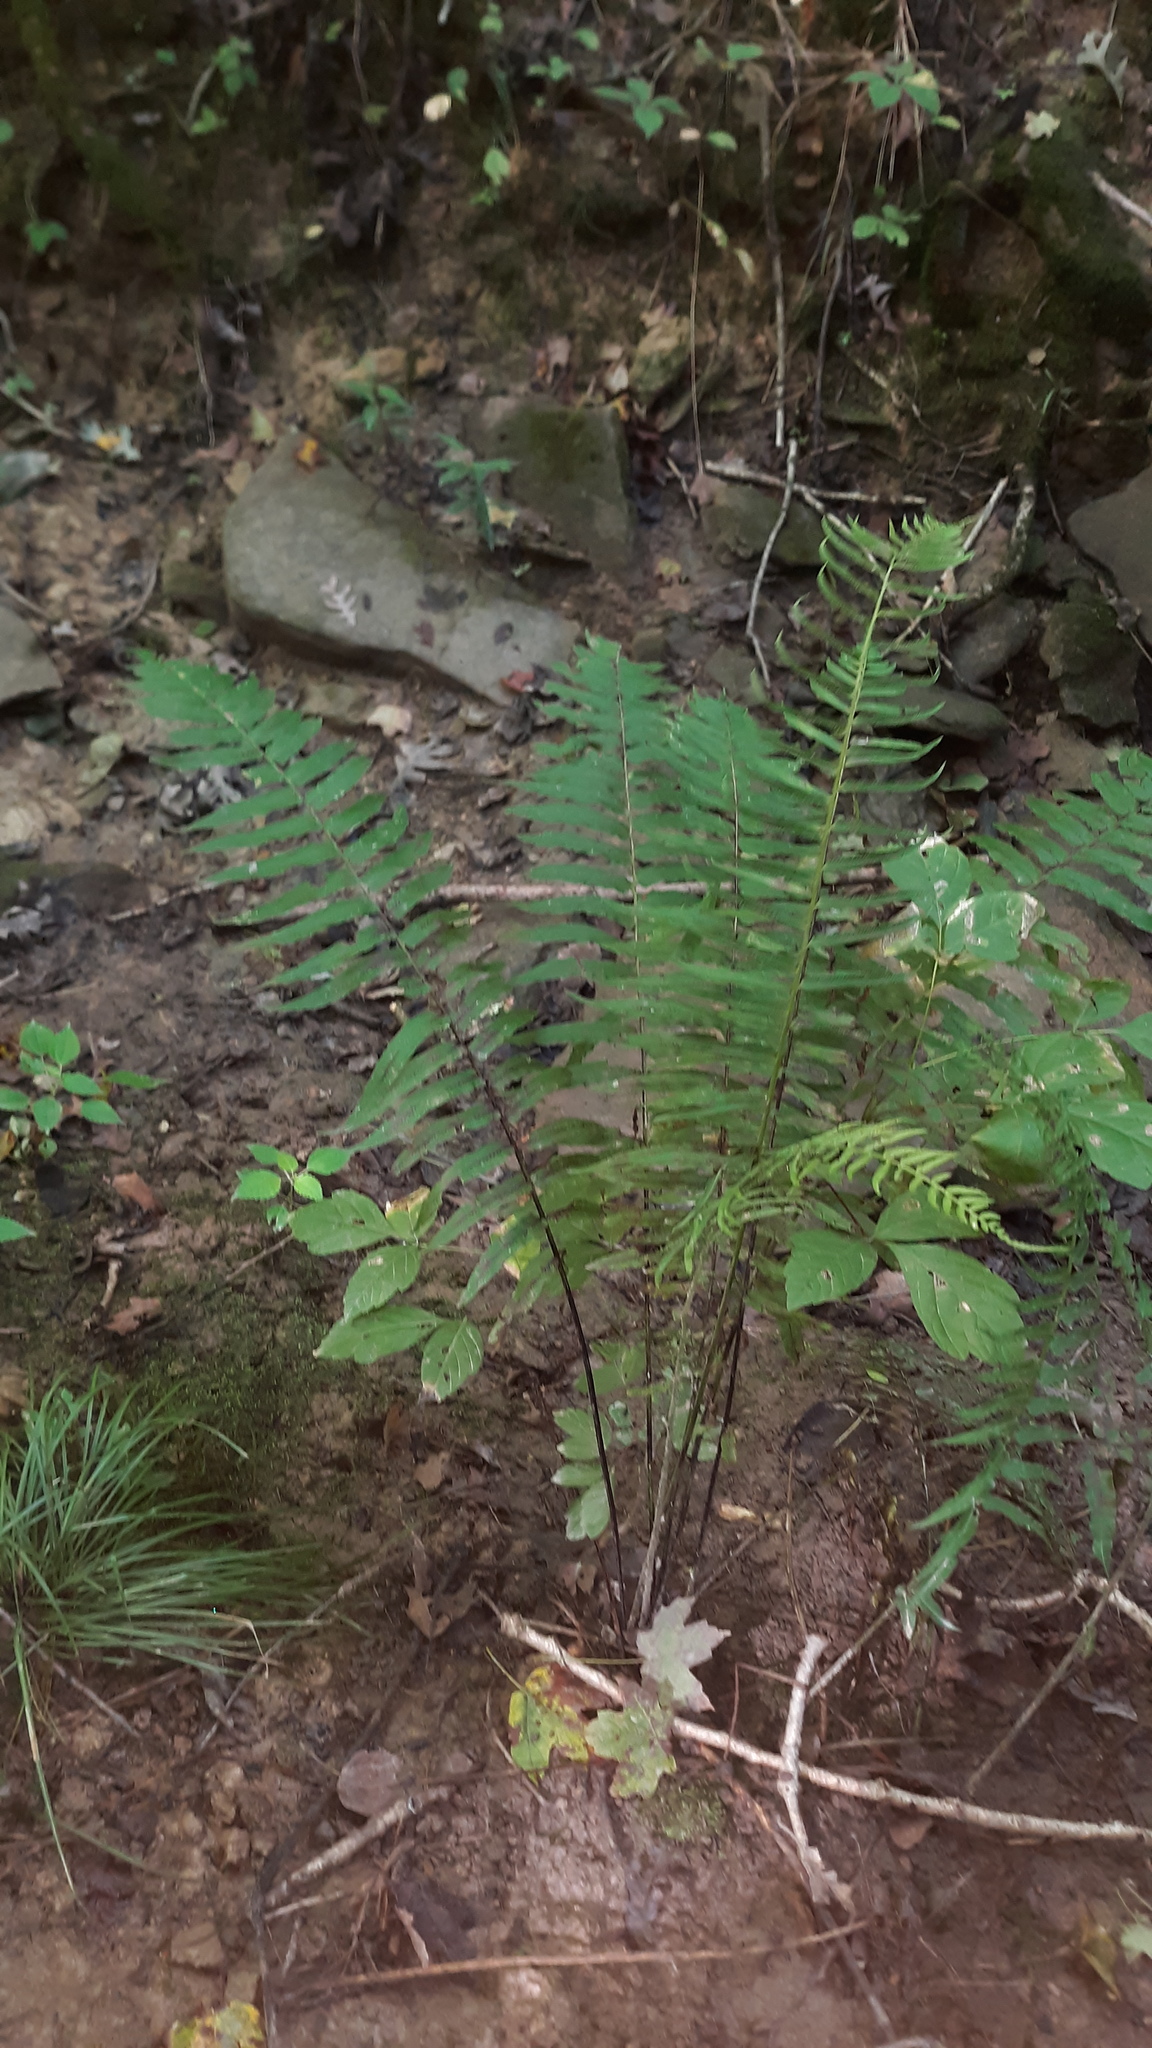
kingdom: Plantae
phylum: Tracheophyta
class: Polypodiopsida
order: Polypodiales
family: Diplaziopsidaceae
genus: Homalosorus
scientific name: Homalosorus pycnocarpos
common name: Glade fern
